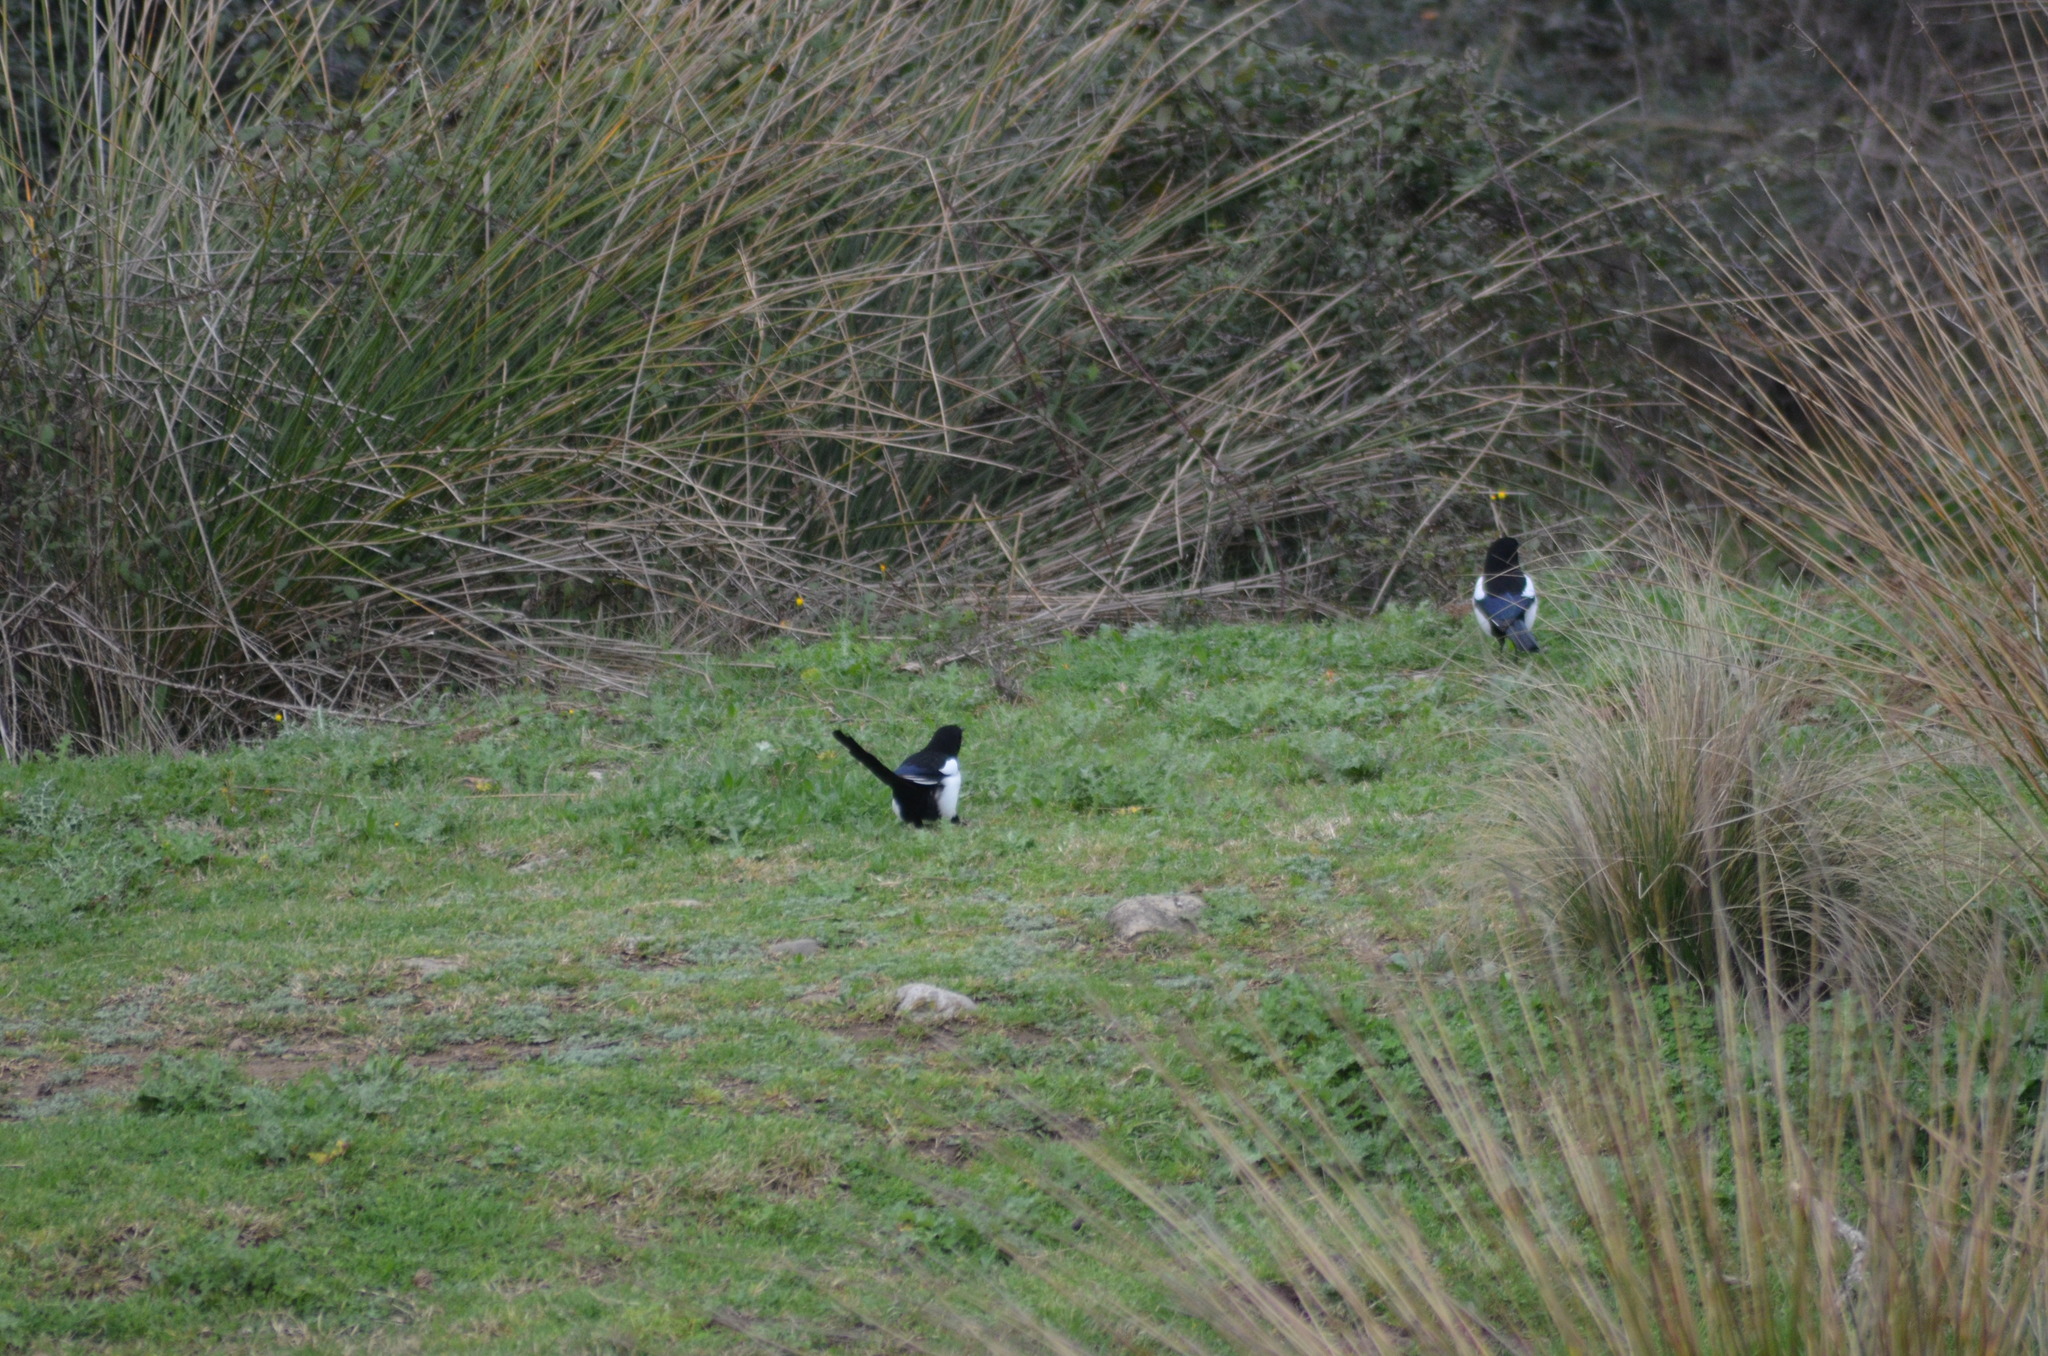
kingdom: Animalia
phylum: Chordata
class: Aves
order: Passeriformes
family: Corvidae
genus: Pica
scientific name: Pica pica
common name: Eurasian magpie
